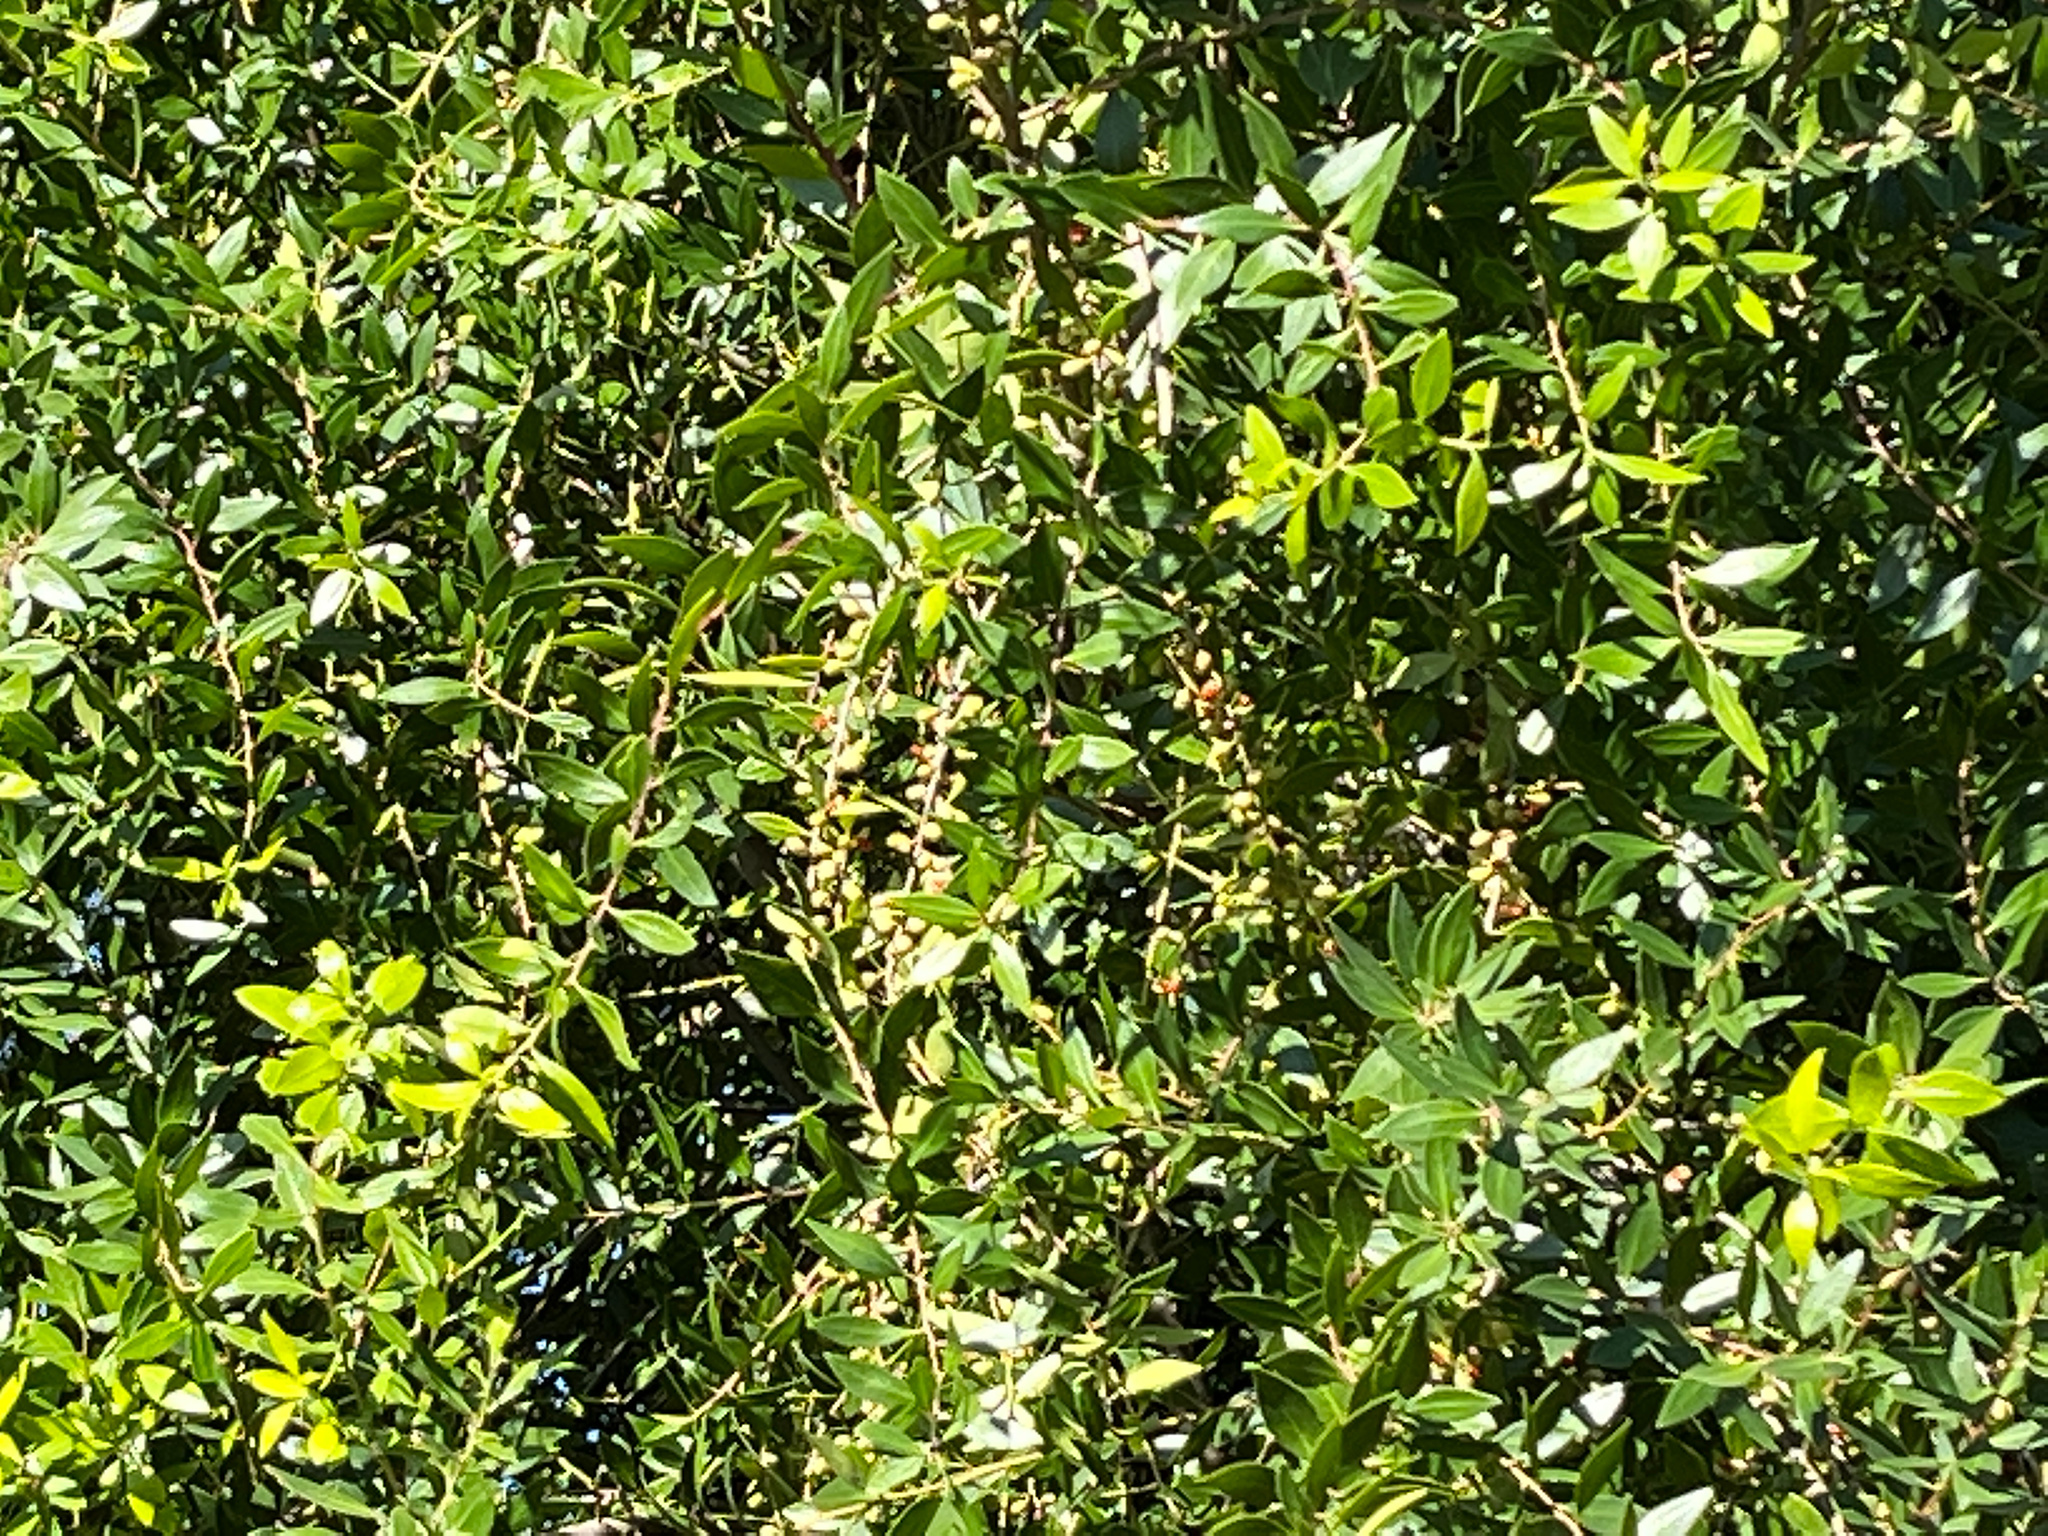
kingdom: Plantae
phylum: Tracheophyta
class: Magnoliopsida
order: Celastrales
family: Celastraceae
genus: Maytenus
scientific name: Maytenus boaria
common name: Mayten
